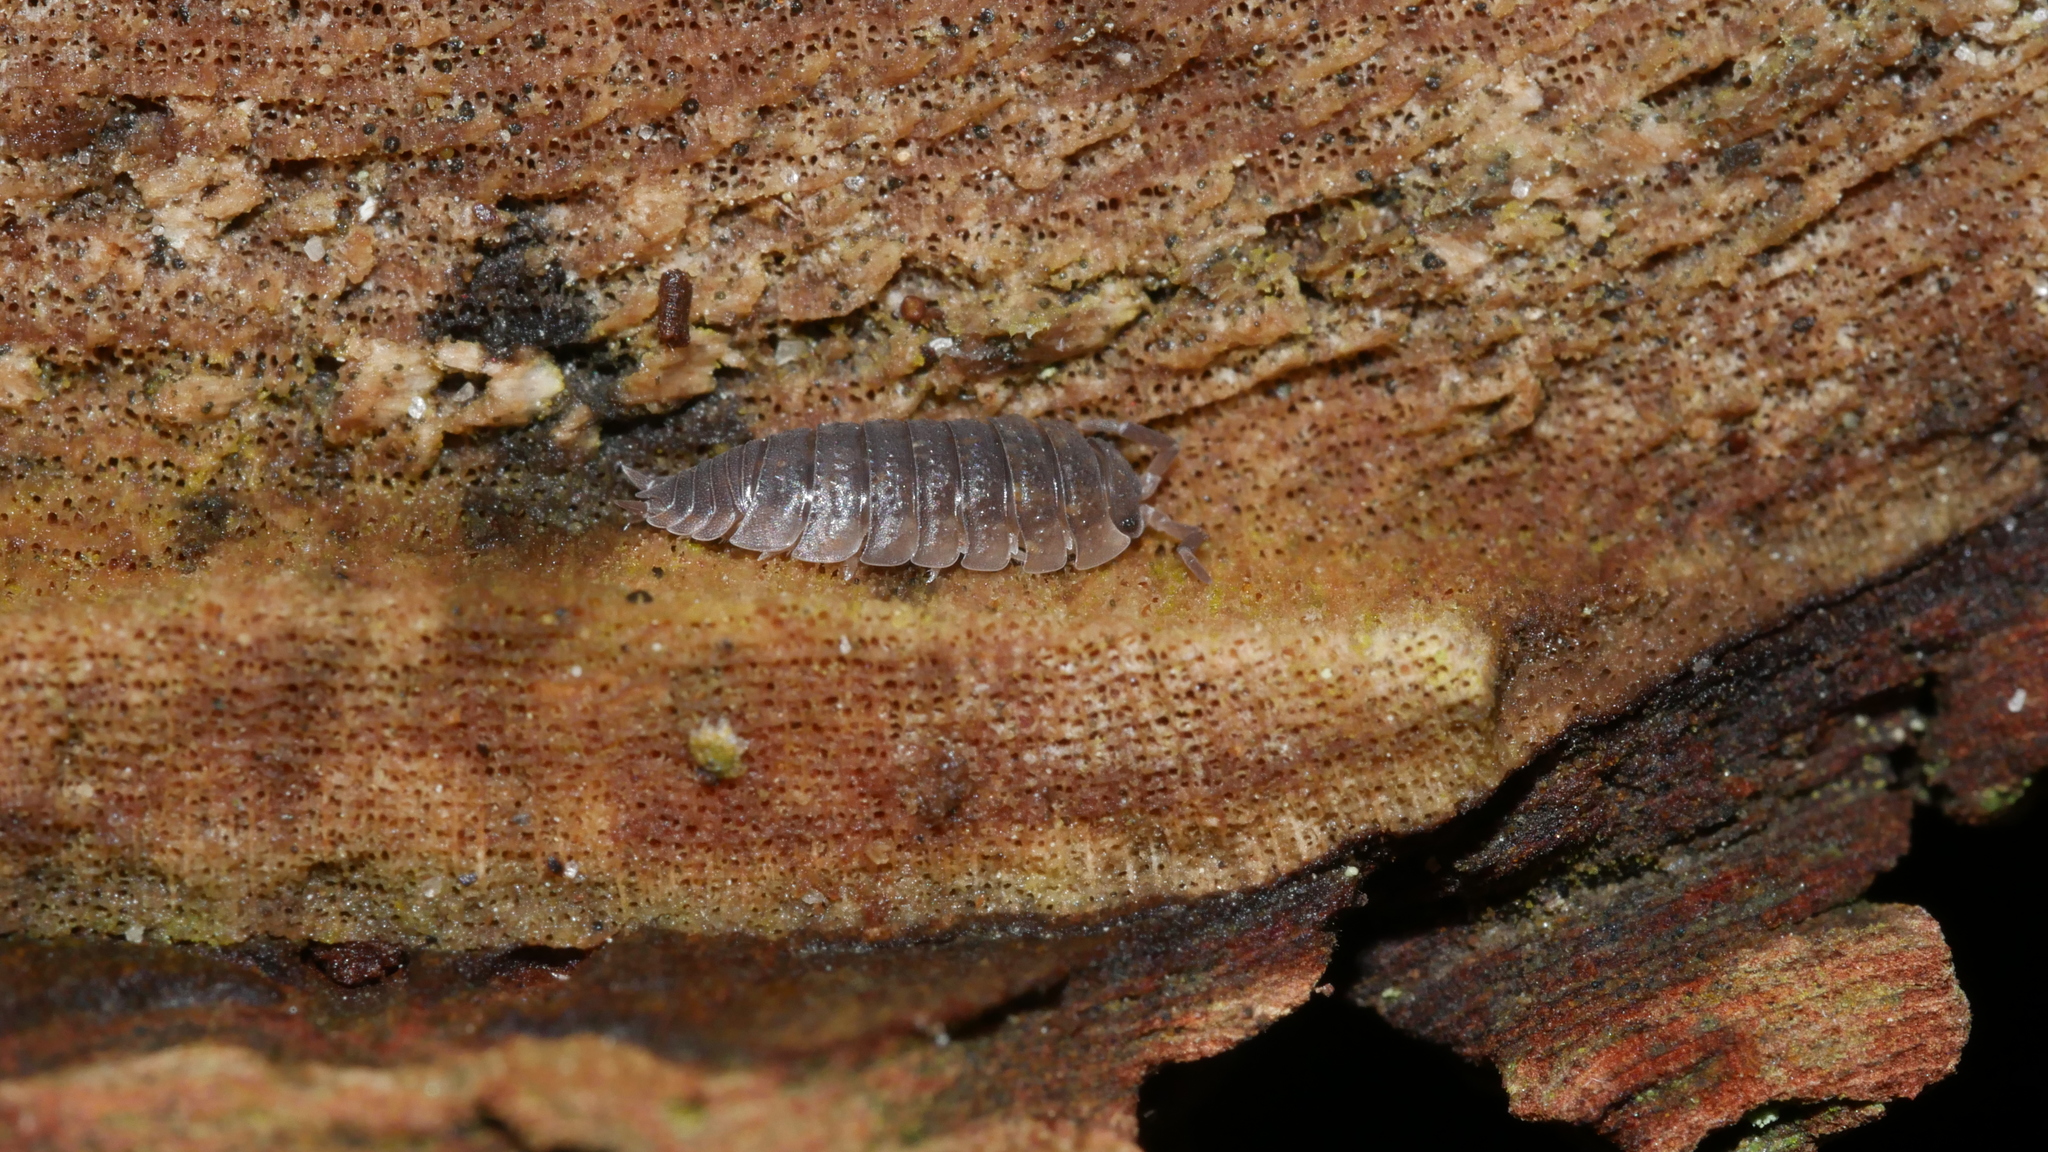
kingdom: Animalia
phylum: Arthropoda
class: Malacostraca
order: Isopoda
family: Porcellionidae
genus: Porcellio
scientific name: Porcellio scaber
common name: Common rough woodlouse
